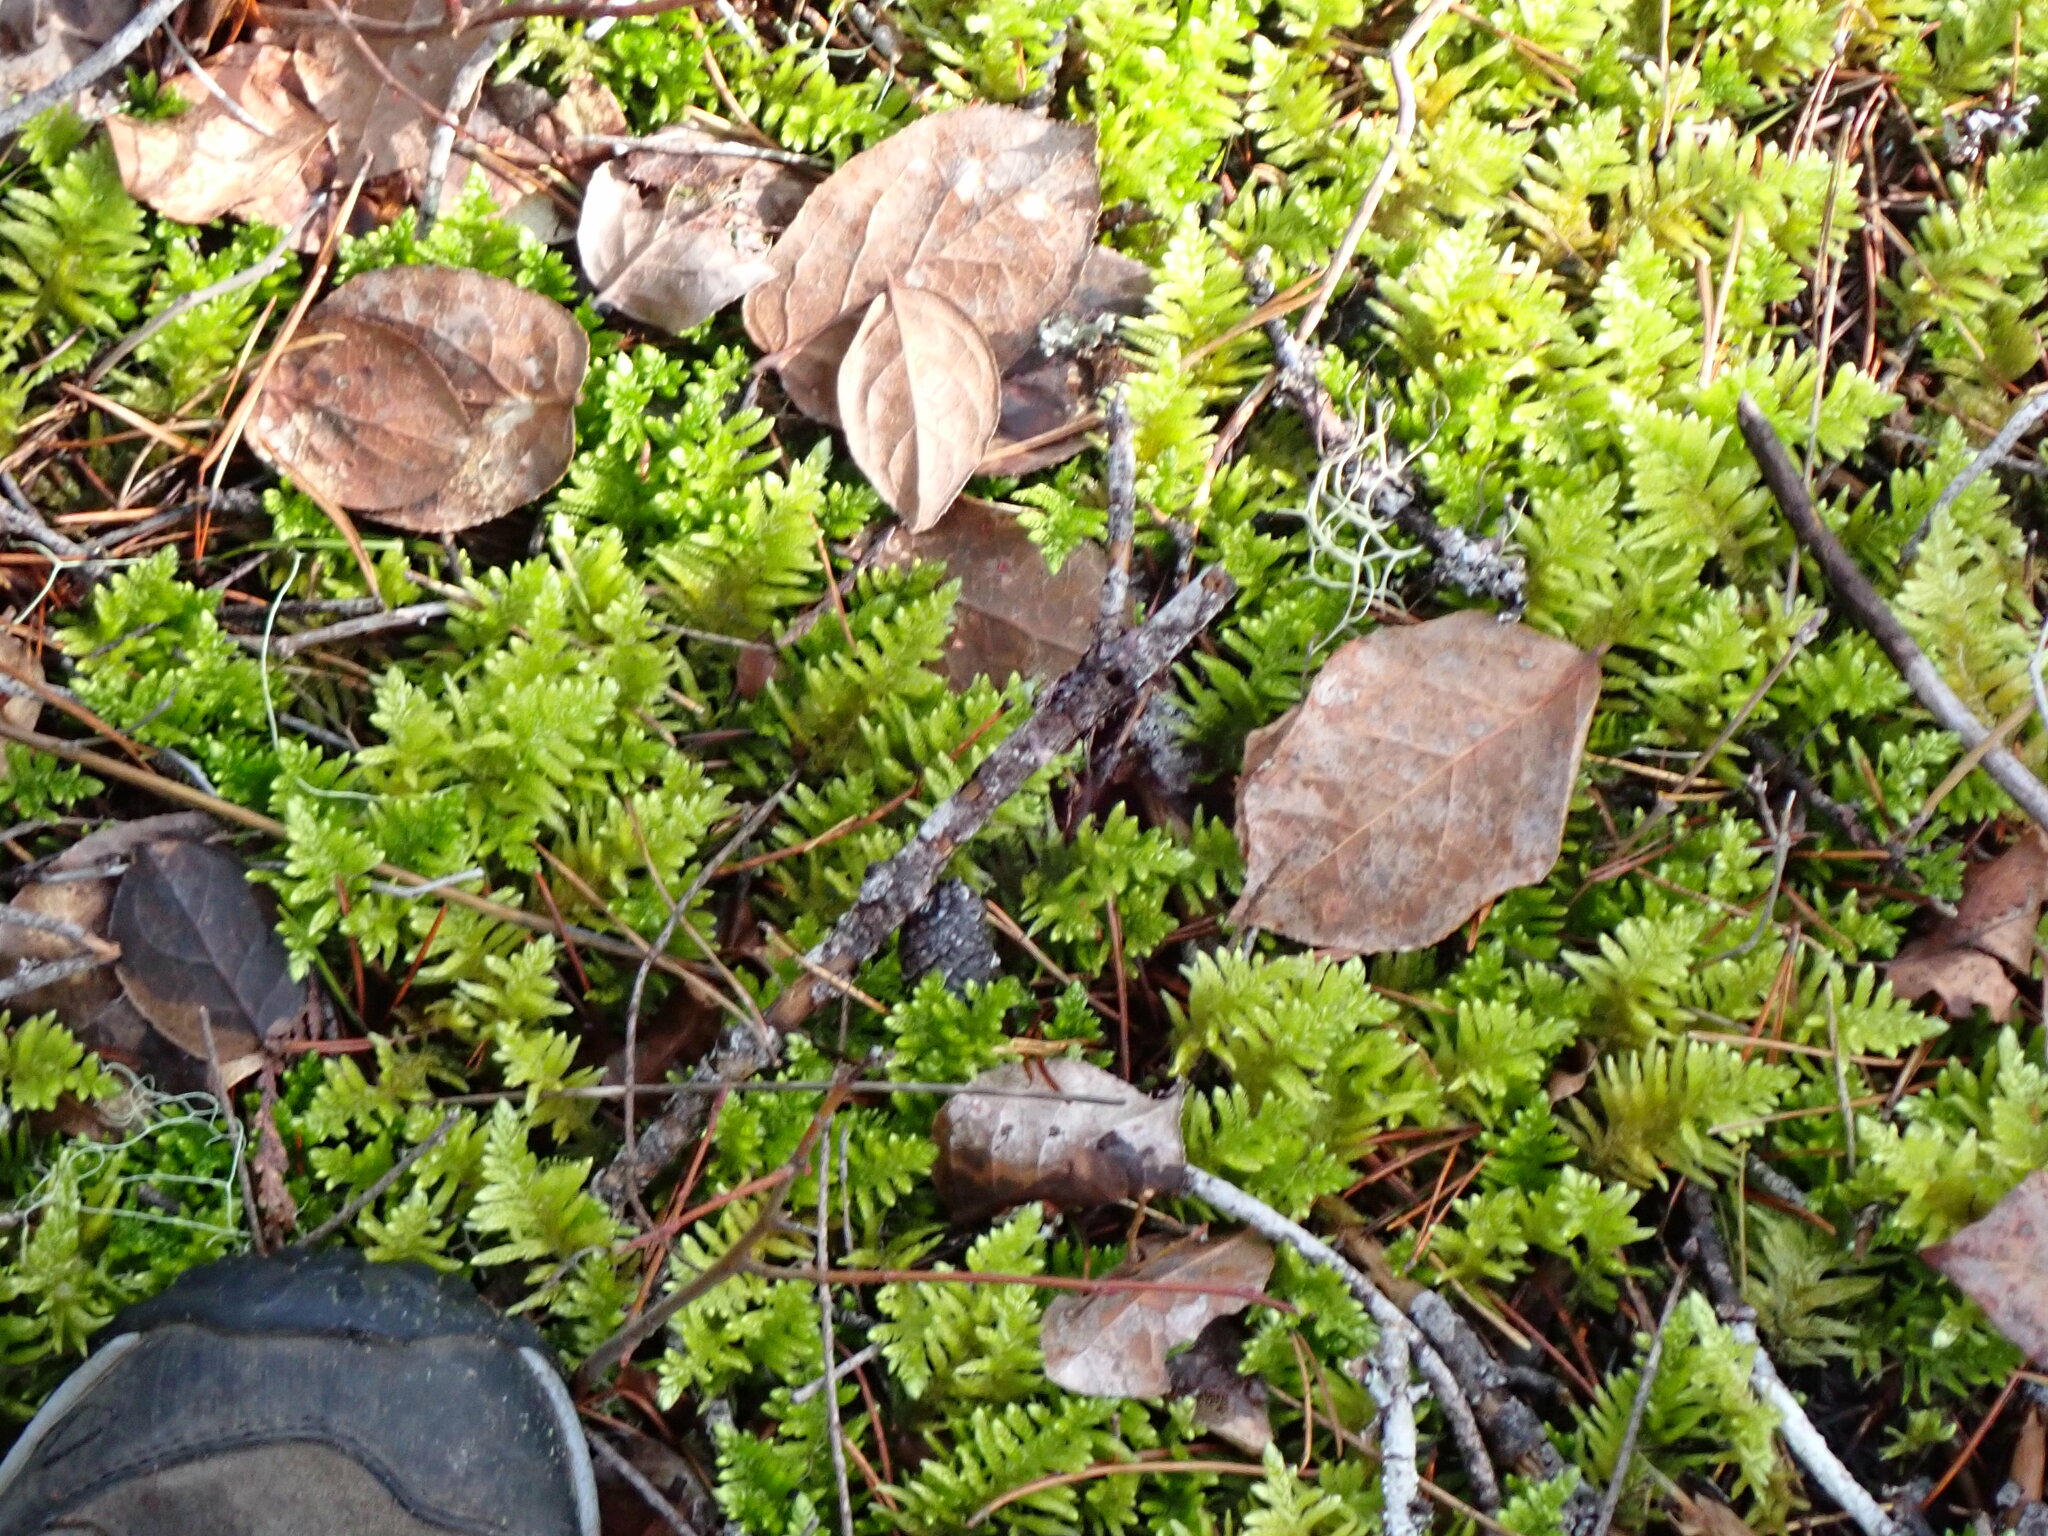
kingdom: Plantae
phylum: Bryophyta
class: Bryopsida
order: Hypnales
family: Brachytheciaceae
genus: Homalothecium
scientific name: Homalothecium megaptilum
